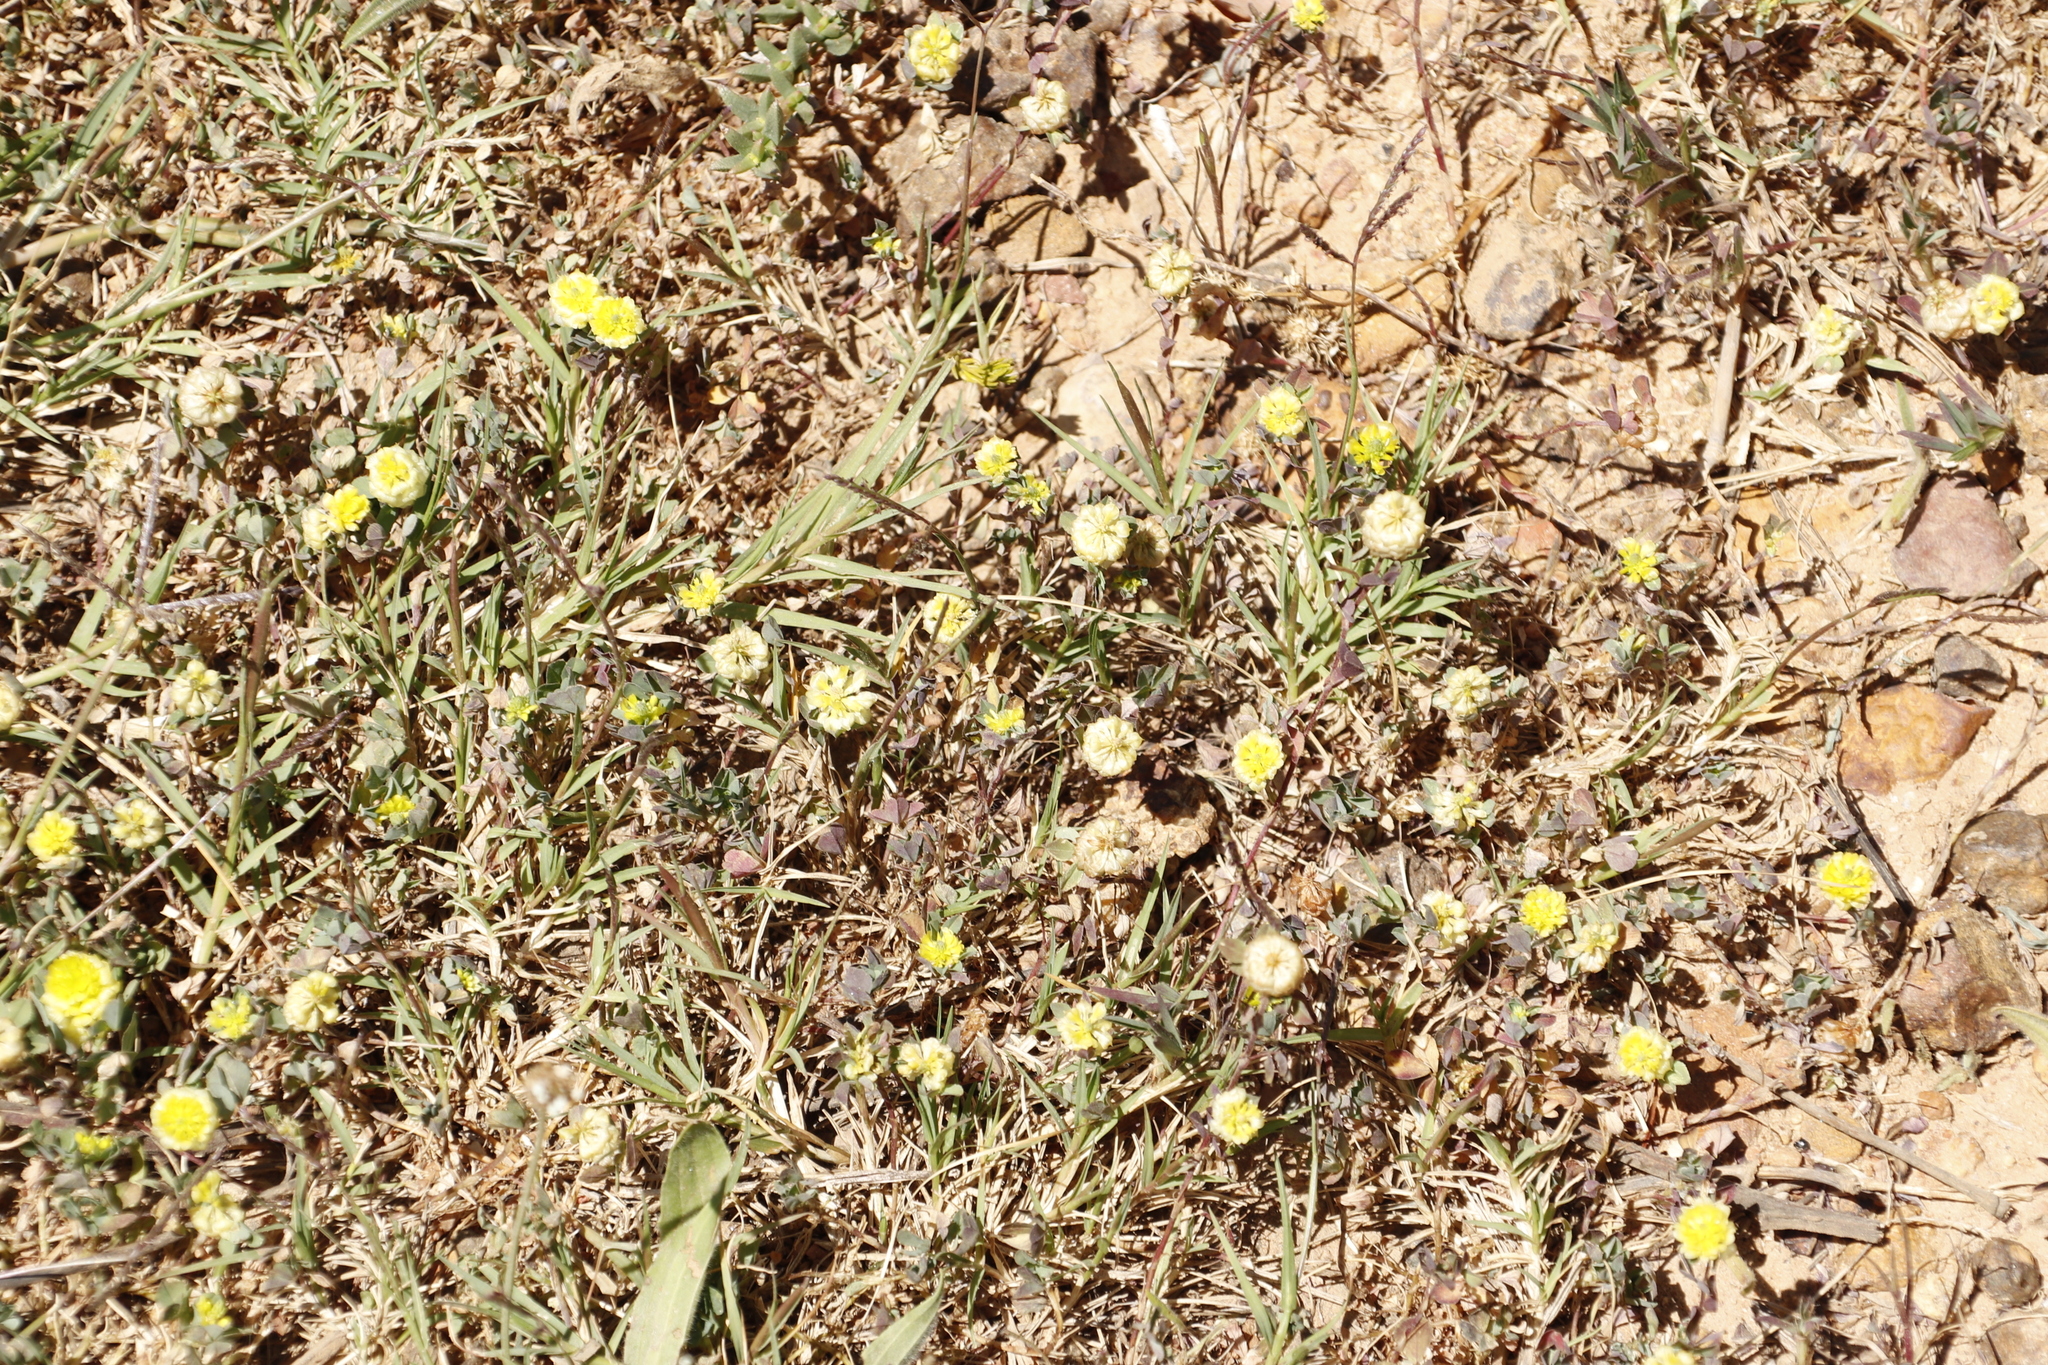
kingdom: Plantae
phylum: Tracheophyta
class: Magnoliopsida
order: Fabales
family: Fabaceae
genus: Trifolium
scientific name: Trifolium campestre
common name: Field clover
